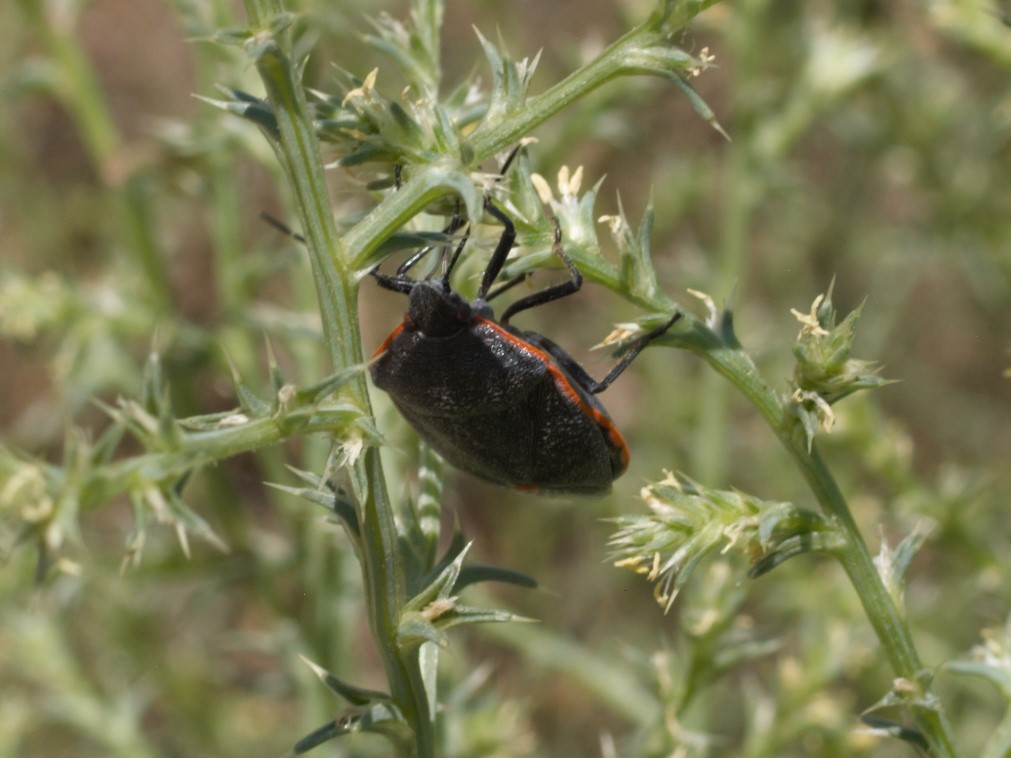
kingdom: Animalia
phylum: Arthropoda
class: Insecta
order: Hemiptera
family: Pentatomidae
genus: Chlorochroa
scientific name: Chlorochroa ligata
